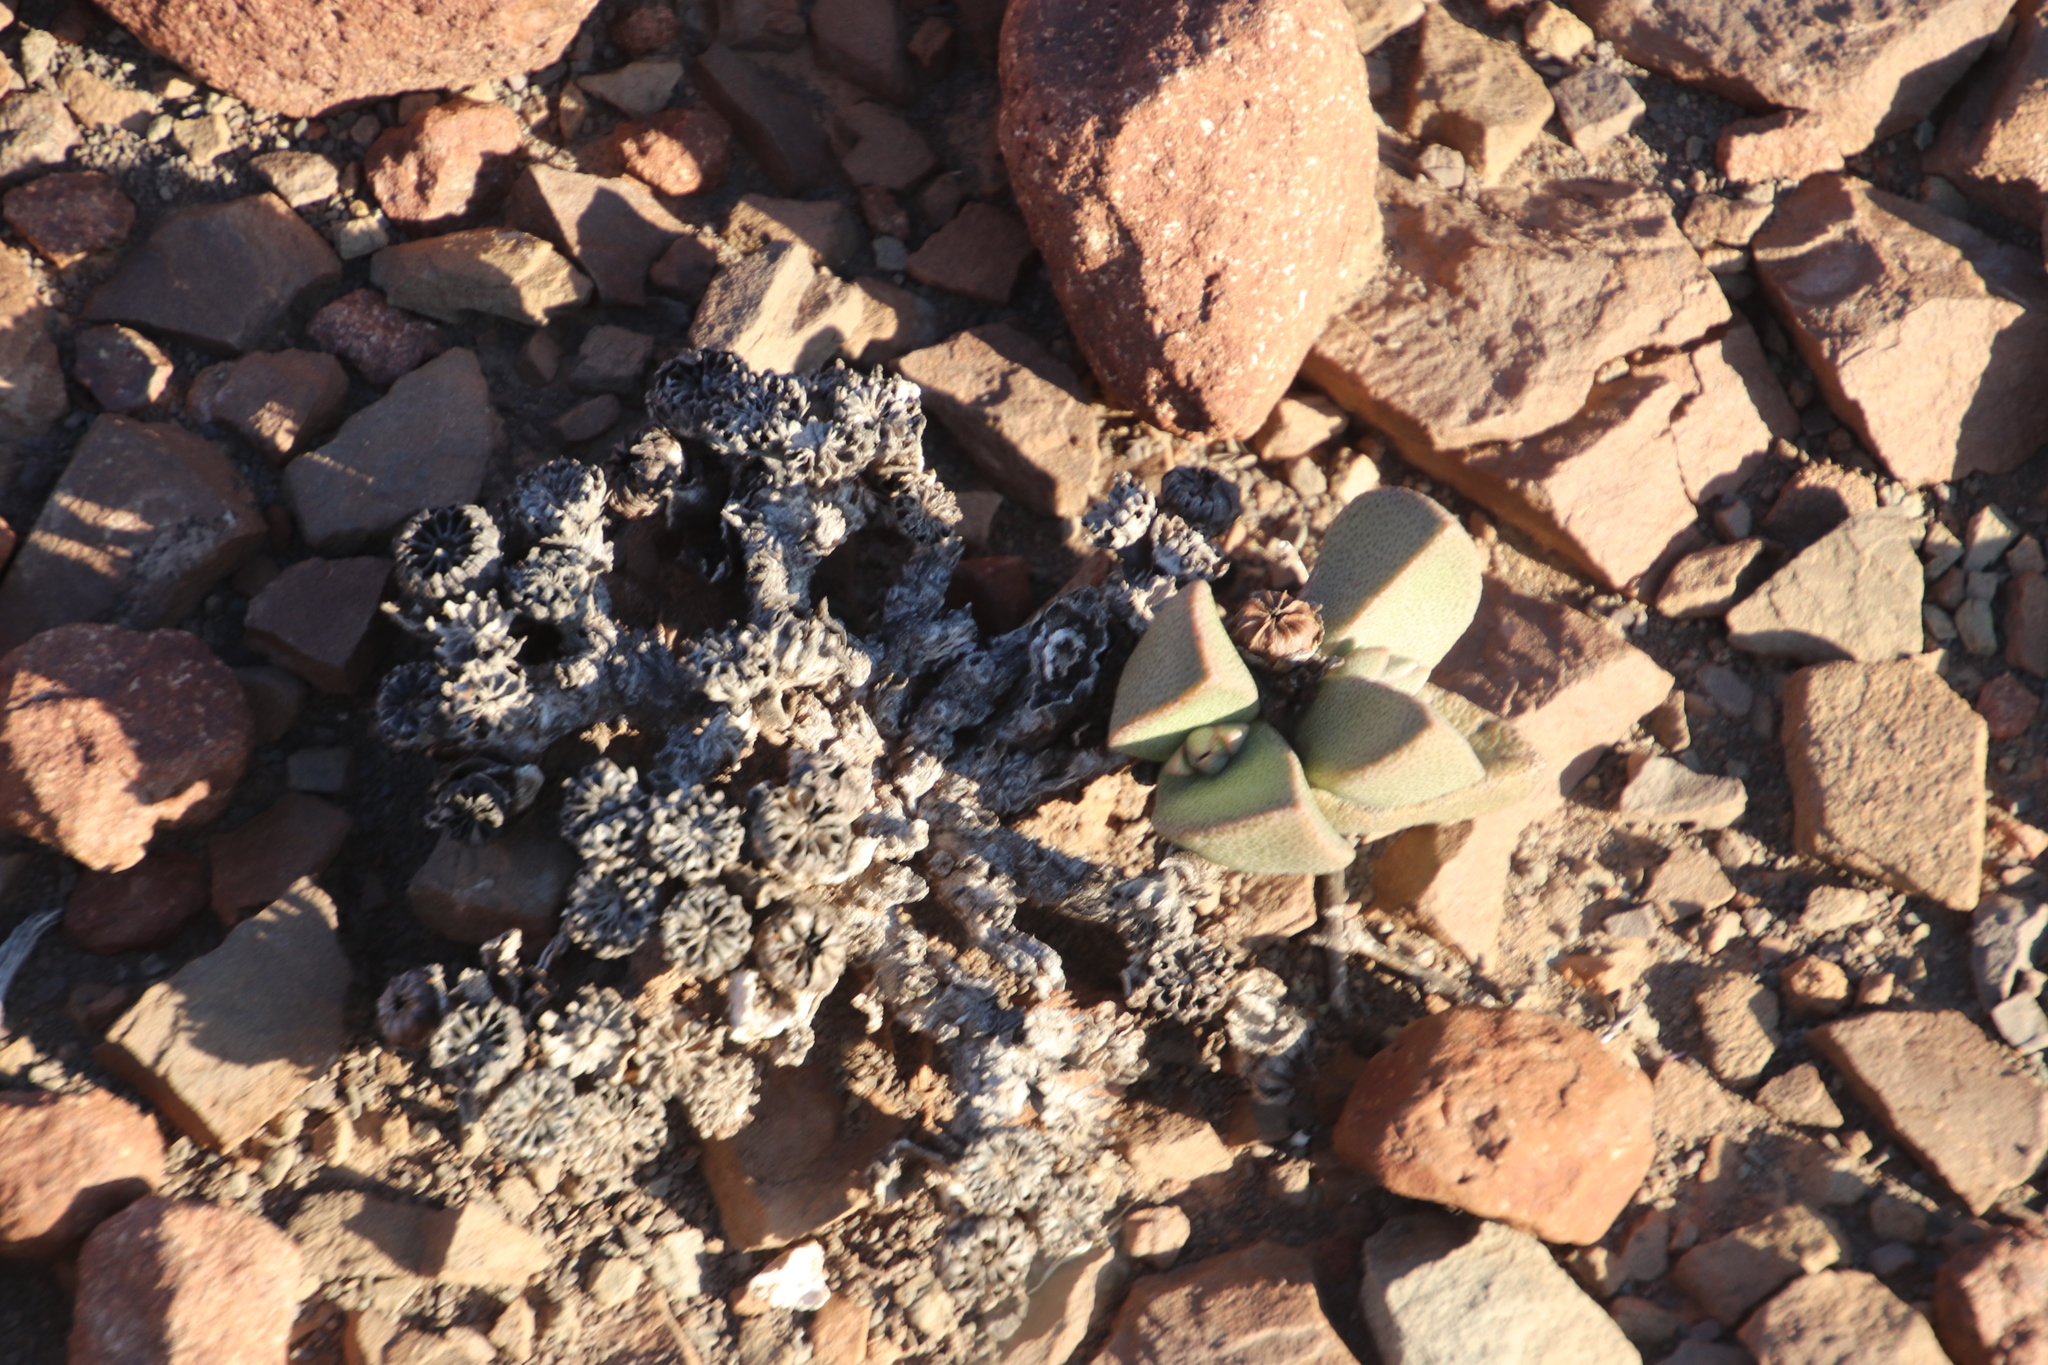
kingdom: Plantae
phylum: Tracheophyta
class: Magnoliopsida
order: Caryophyllales
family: Aizoaceae
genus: Pleiospilos
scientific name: Pleiospilos compactus
